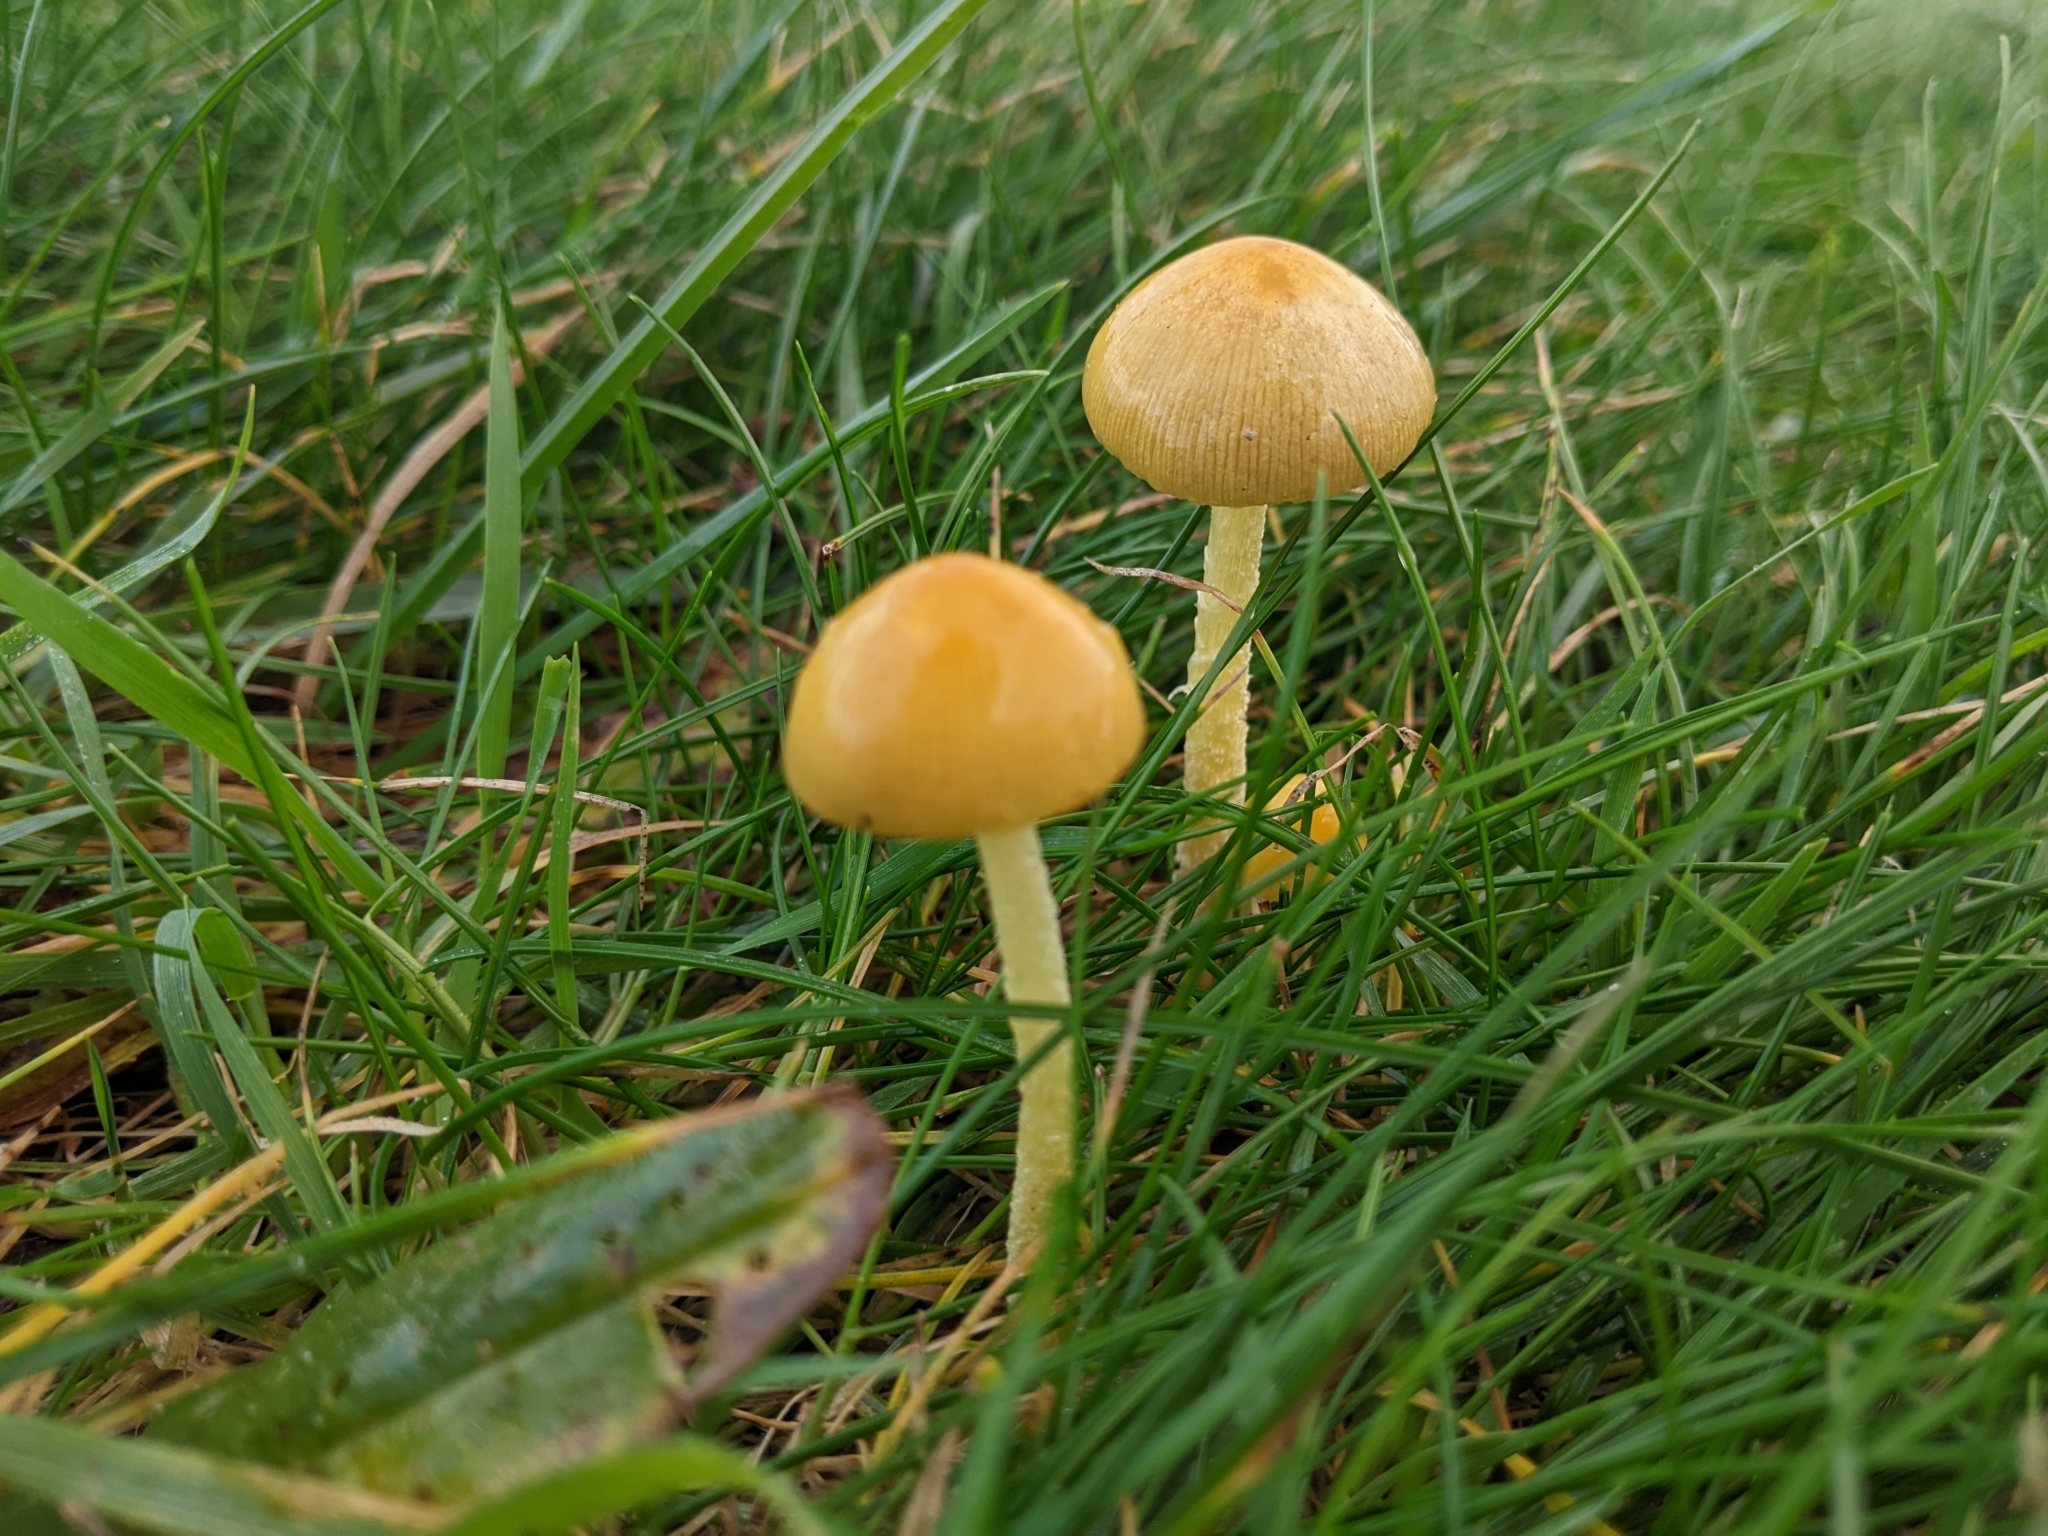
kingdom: Fungi
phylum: Basidiomycota
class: Agaricomycetes
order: Agaricales
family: Bolbitiaceae
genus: Bolbitius
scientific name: Bolbitius titubans
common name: Yellow fieldcap
